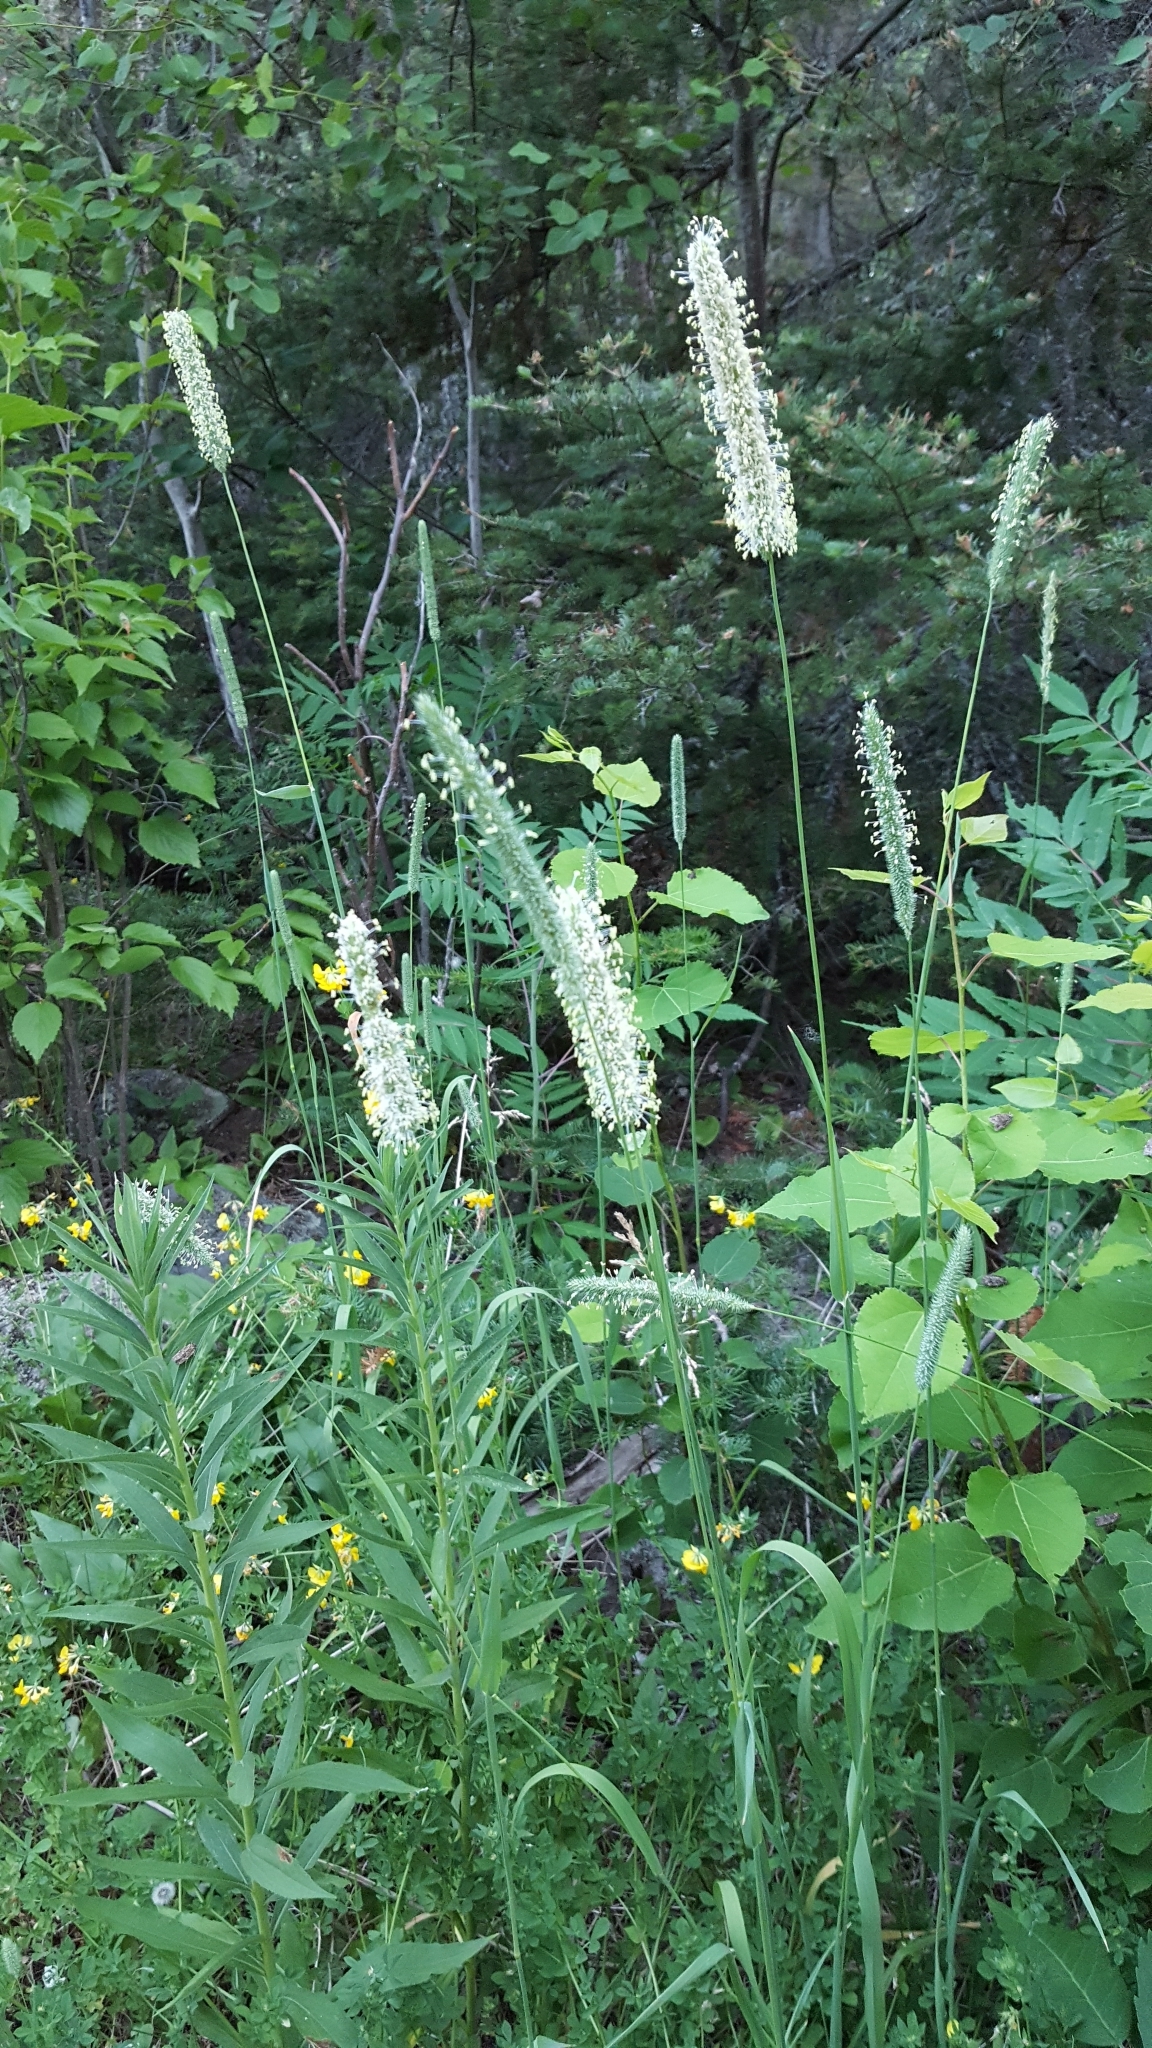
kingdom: Plantae
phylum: Tracheophyta
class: Liliopsida
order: Poales
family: Poaceae
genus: Phleum
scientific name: Phleum pratense
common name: Timothy grass
